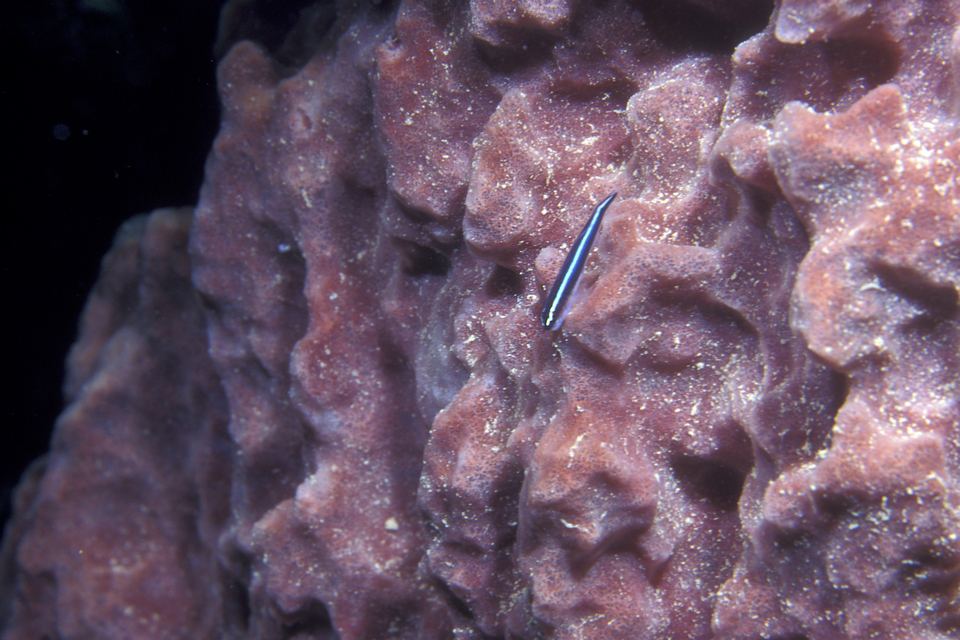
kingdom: Animalia
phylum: Chordata
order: Perciformes
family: Gobiidae
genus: Elacatinus
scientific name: Elacatinus lobeli
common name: Caribbean neon goby
